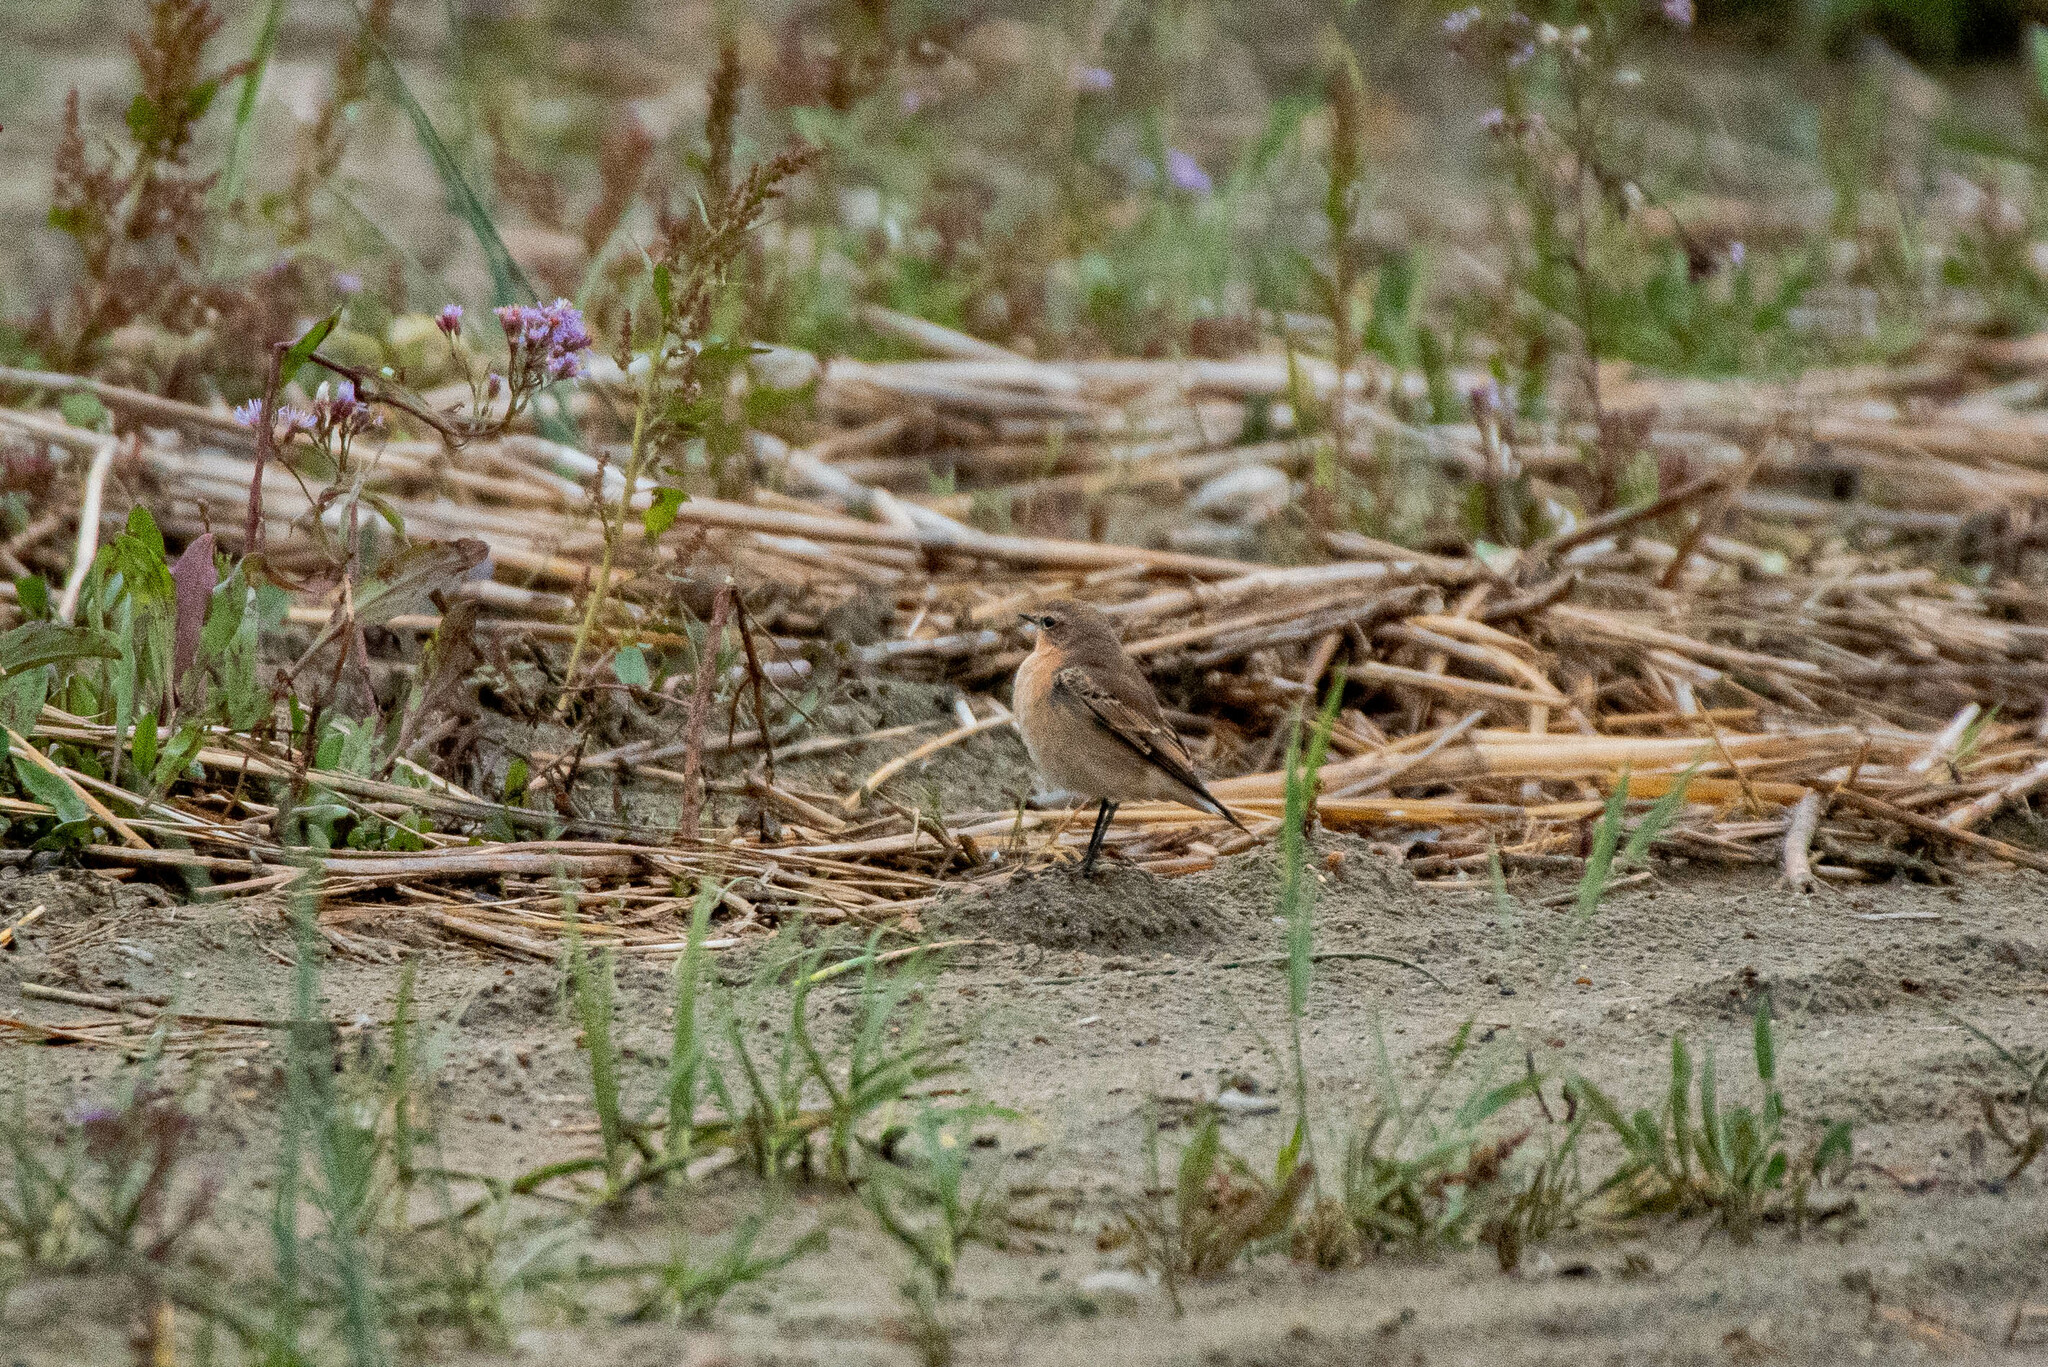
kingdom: Animalia
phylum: Chordata
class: Aves
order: Passeriformes
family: Muscicapidae
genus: Oenanthe
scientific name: Oenanthe oenanthe
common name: Northern wheatear
